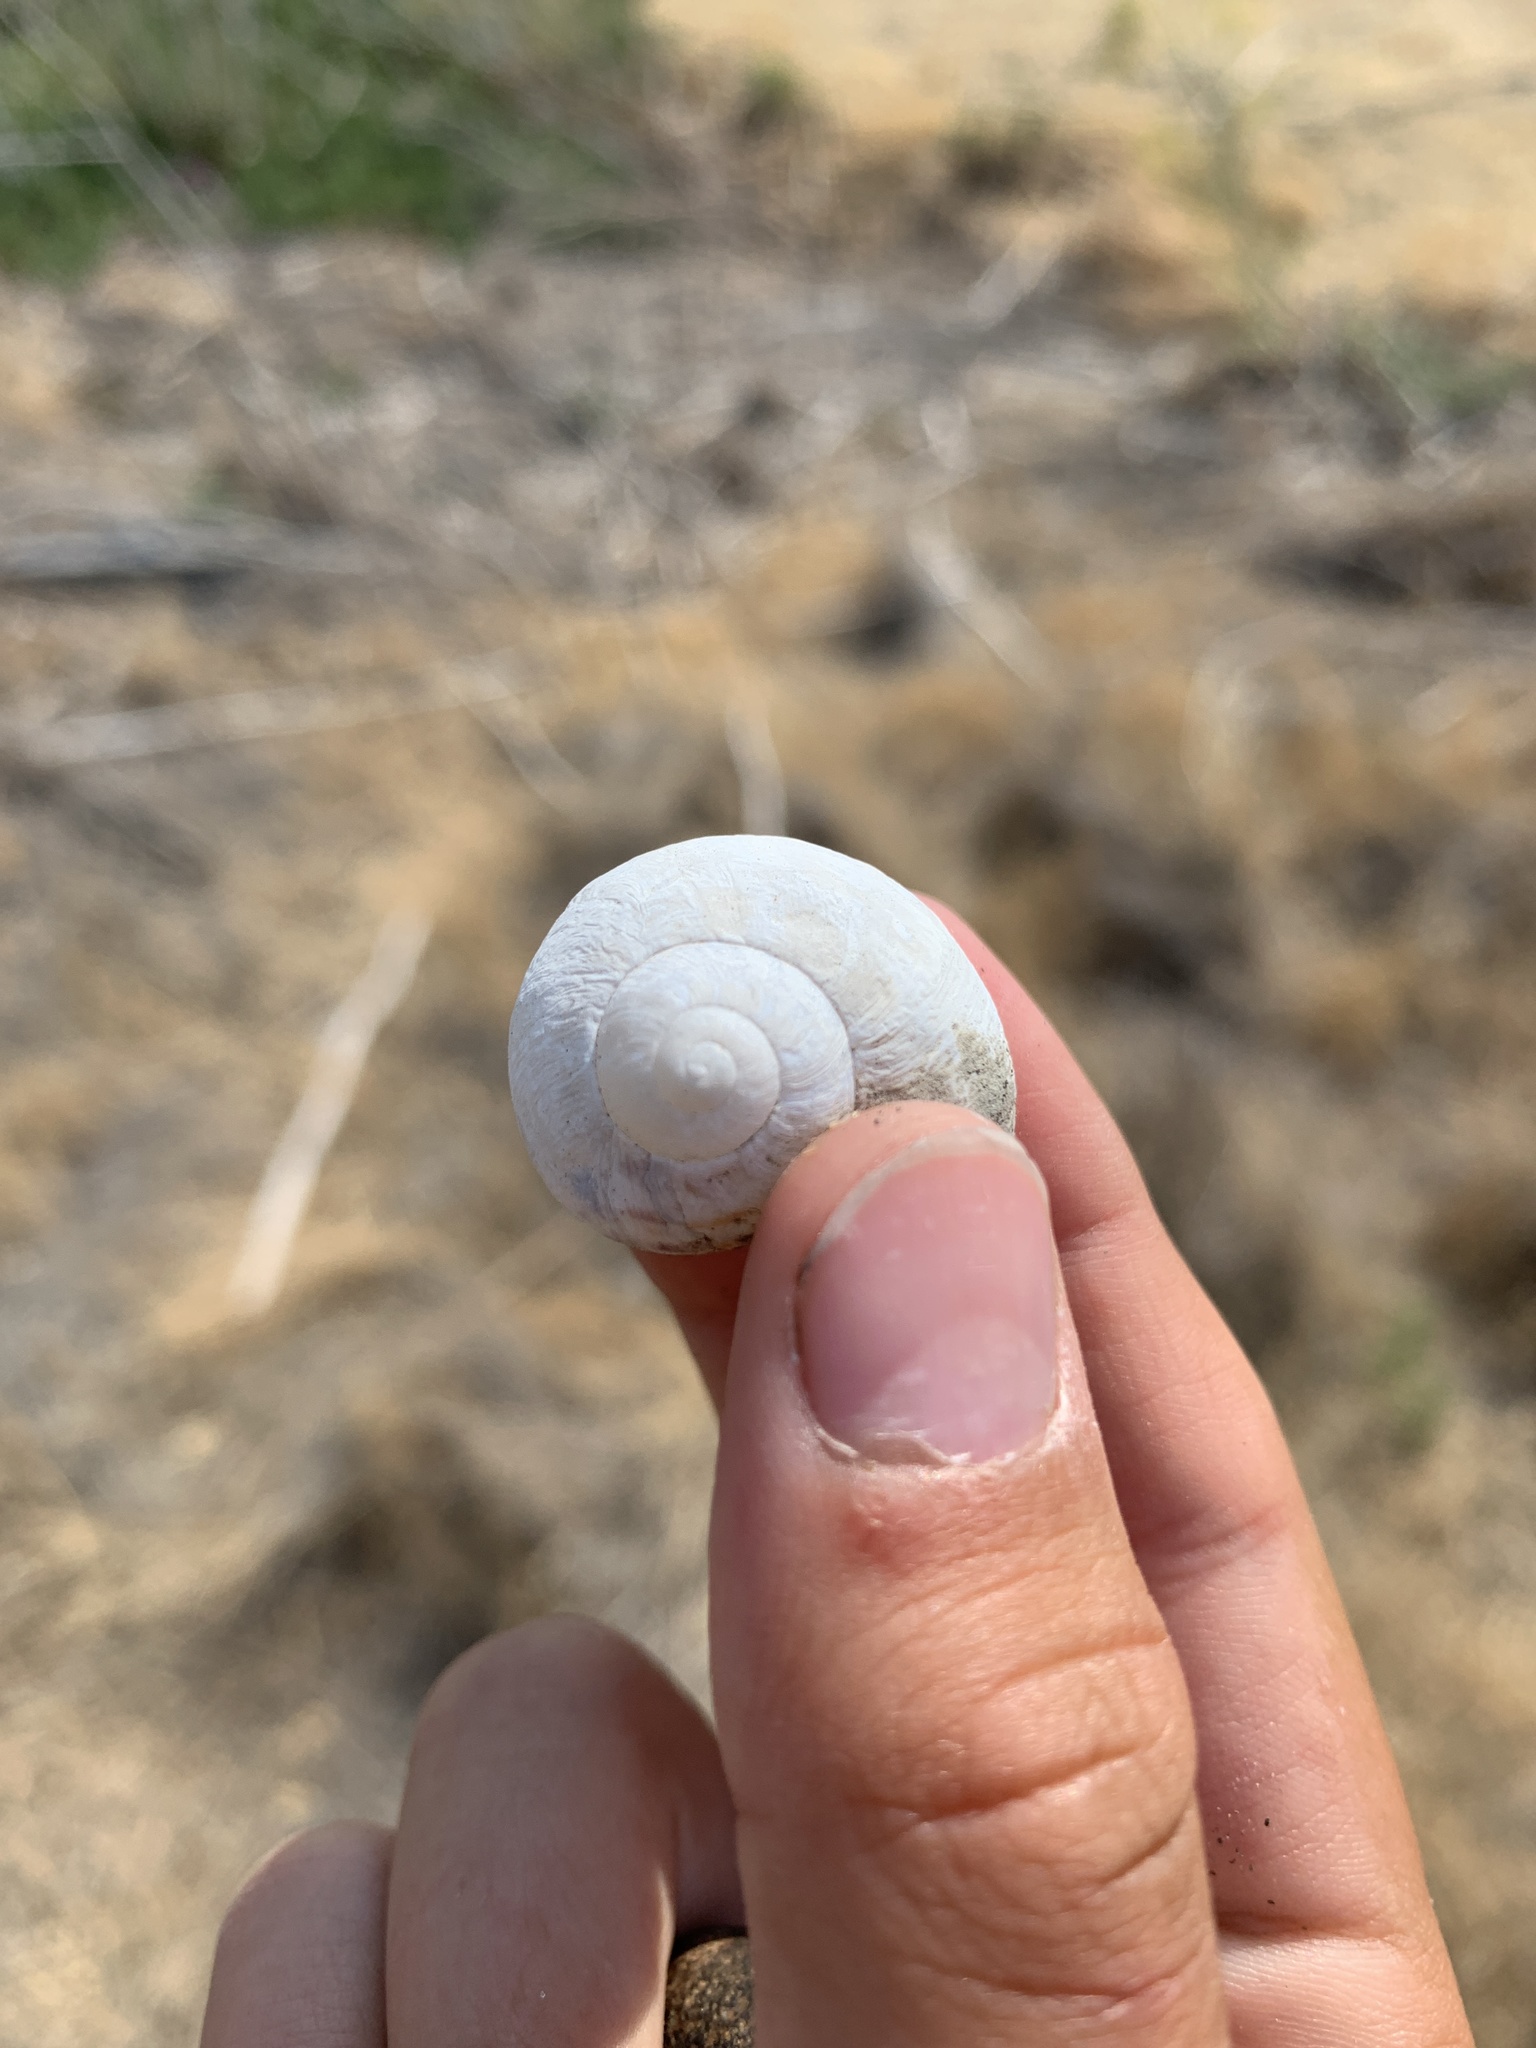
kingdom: Animalia
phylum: Mollusca
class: Gastropoda
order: Stylommatophora
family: Helicidae
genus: Cornu
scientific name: Cornu aspersum
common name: Brown garden snail
